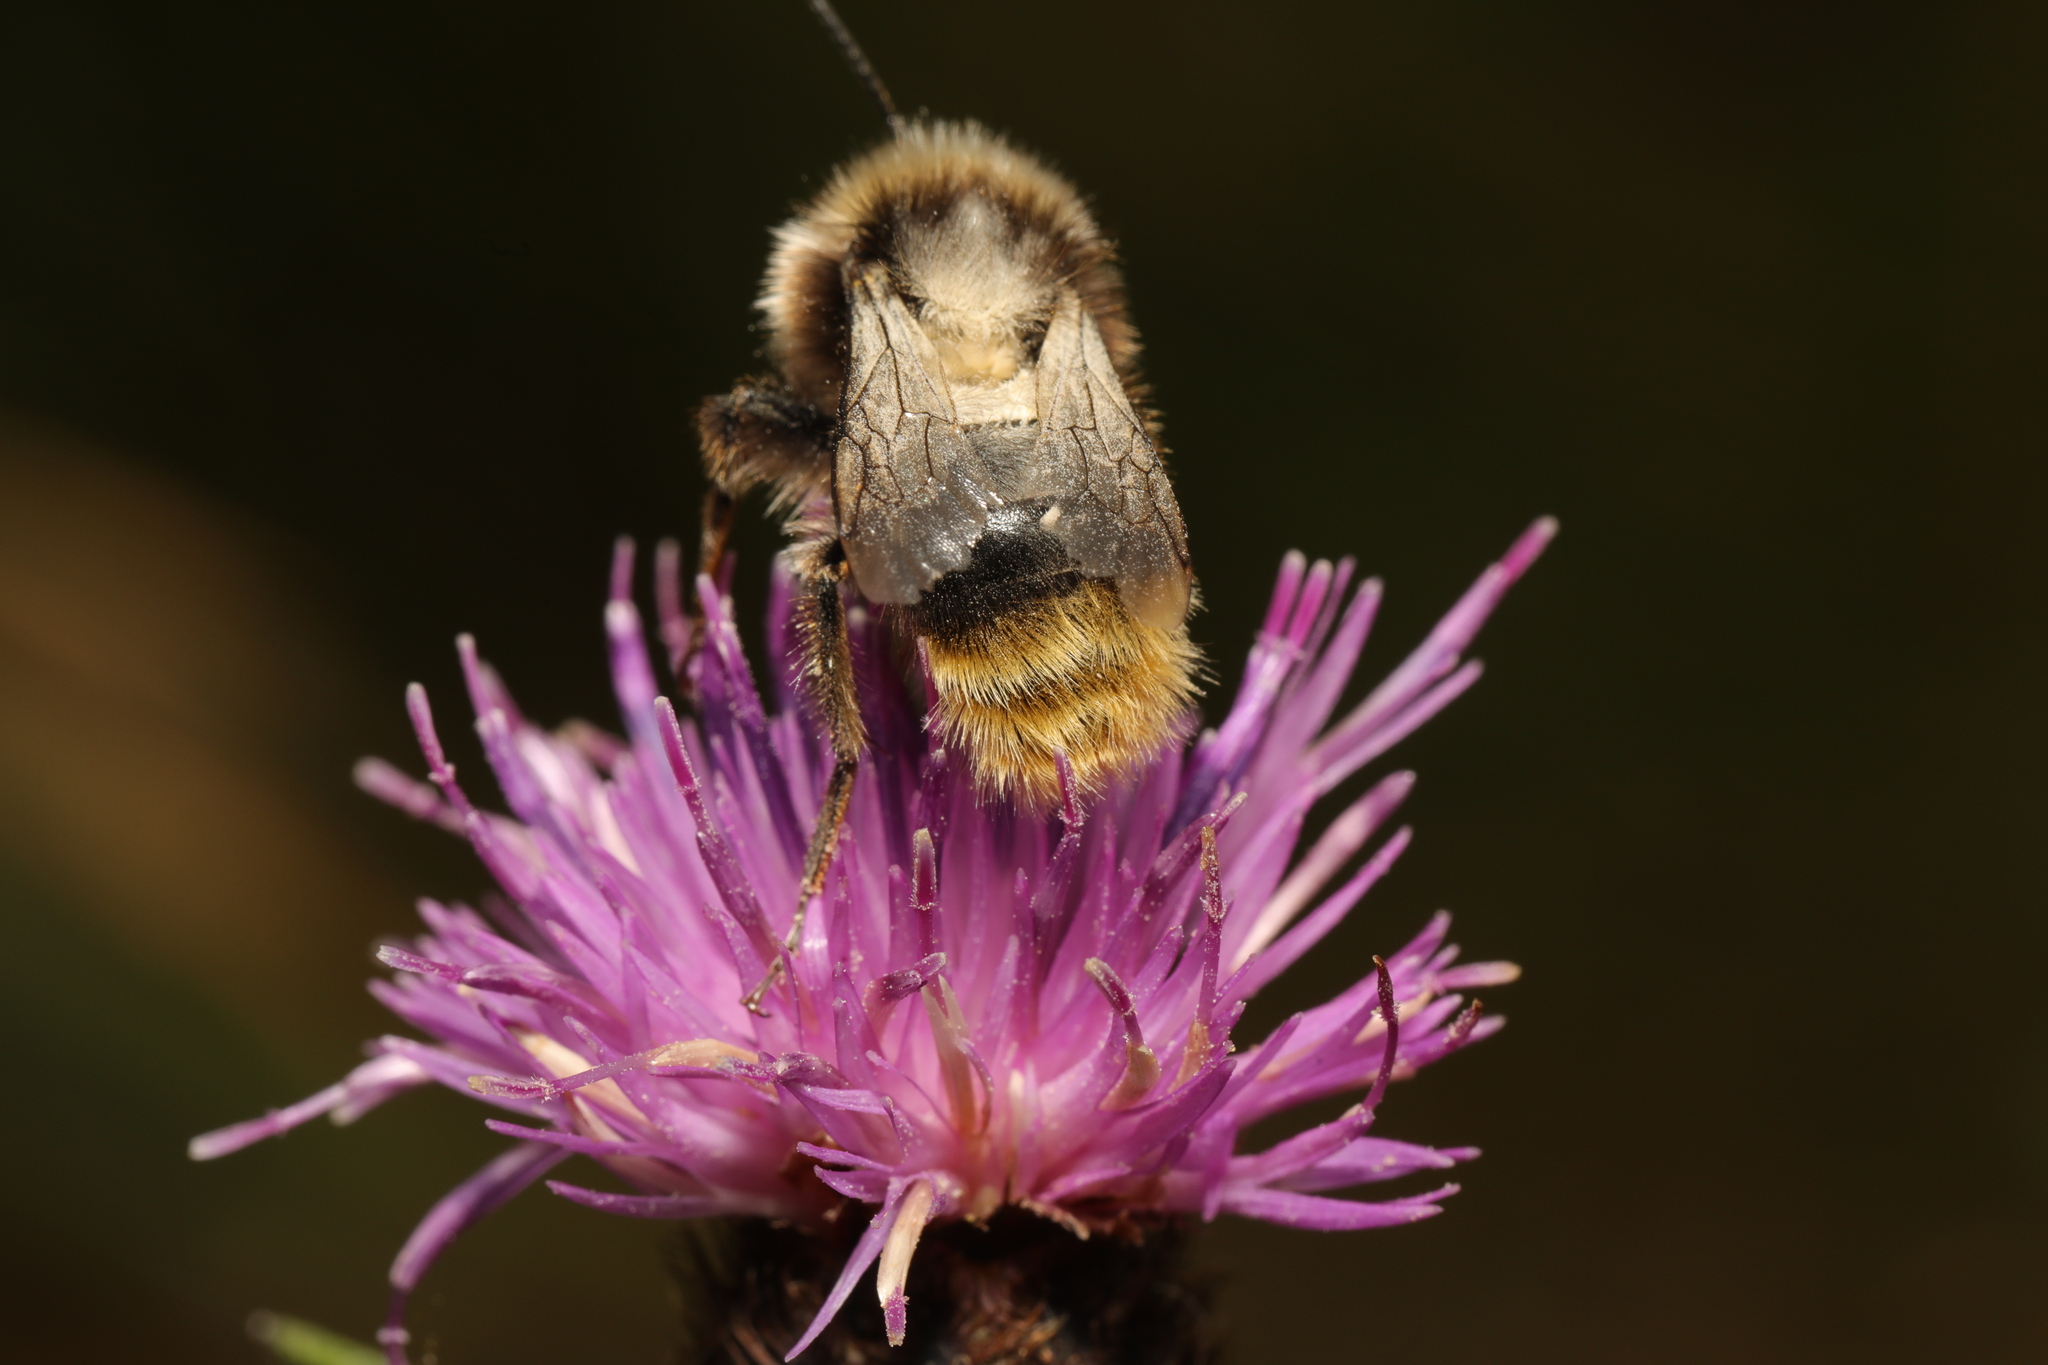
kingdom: Animalia
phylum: Arthropoda
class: Insecta
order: Hymenoptera
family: Apidae
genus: Bombus
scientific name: Bombus pascuorum
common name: Common carder bee
